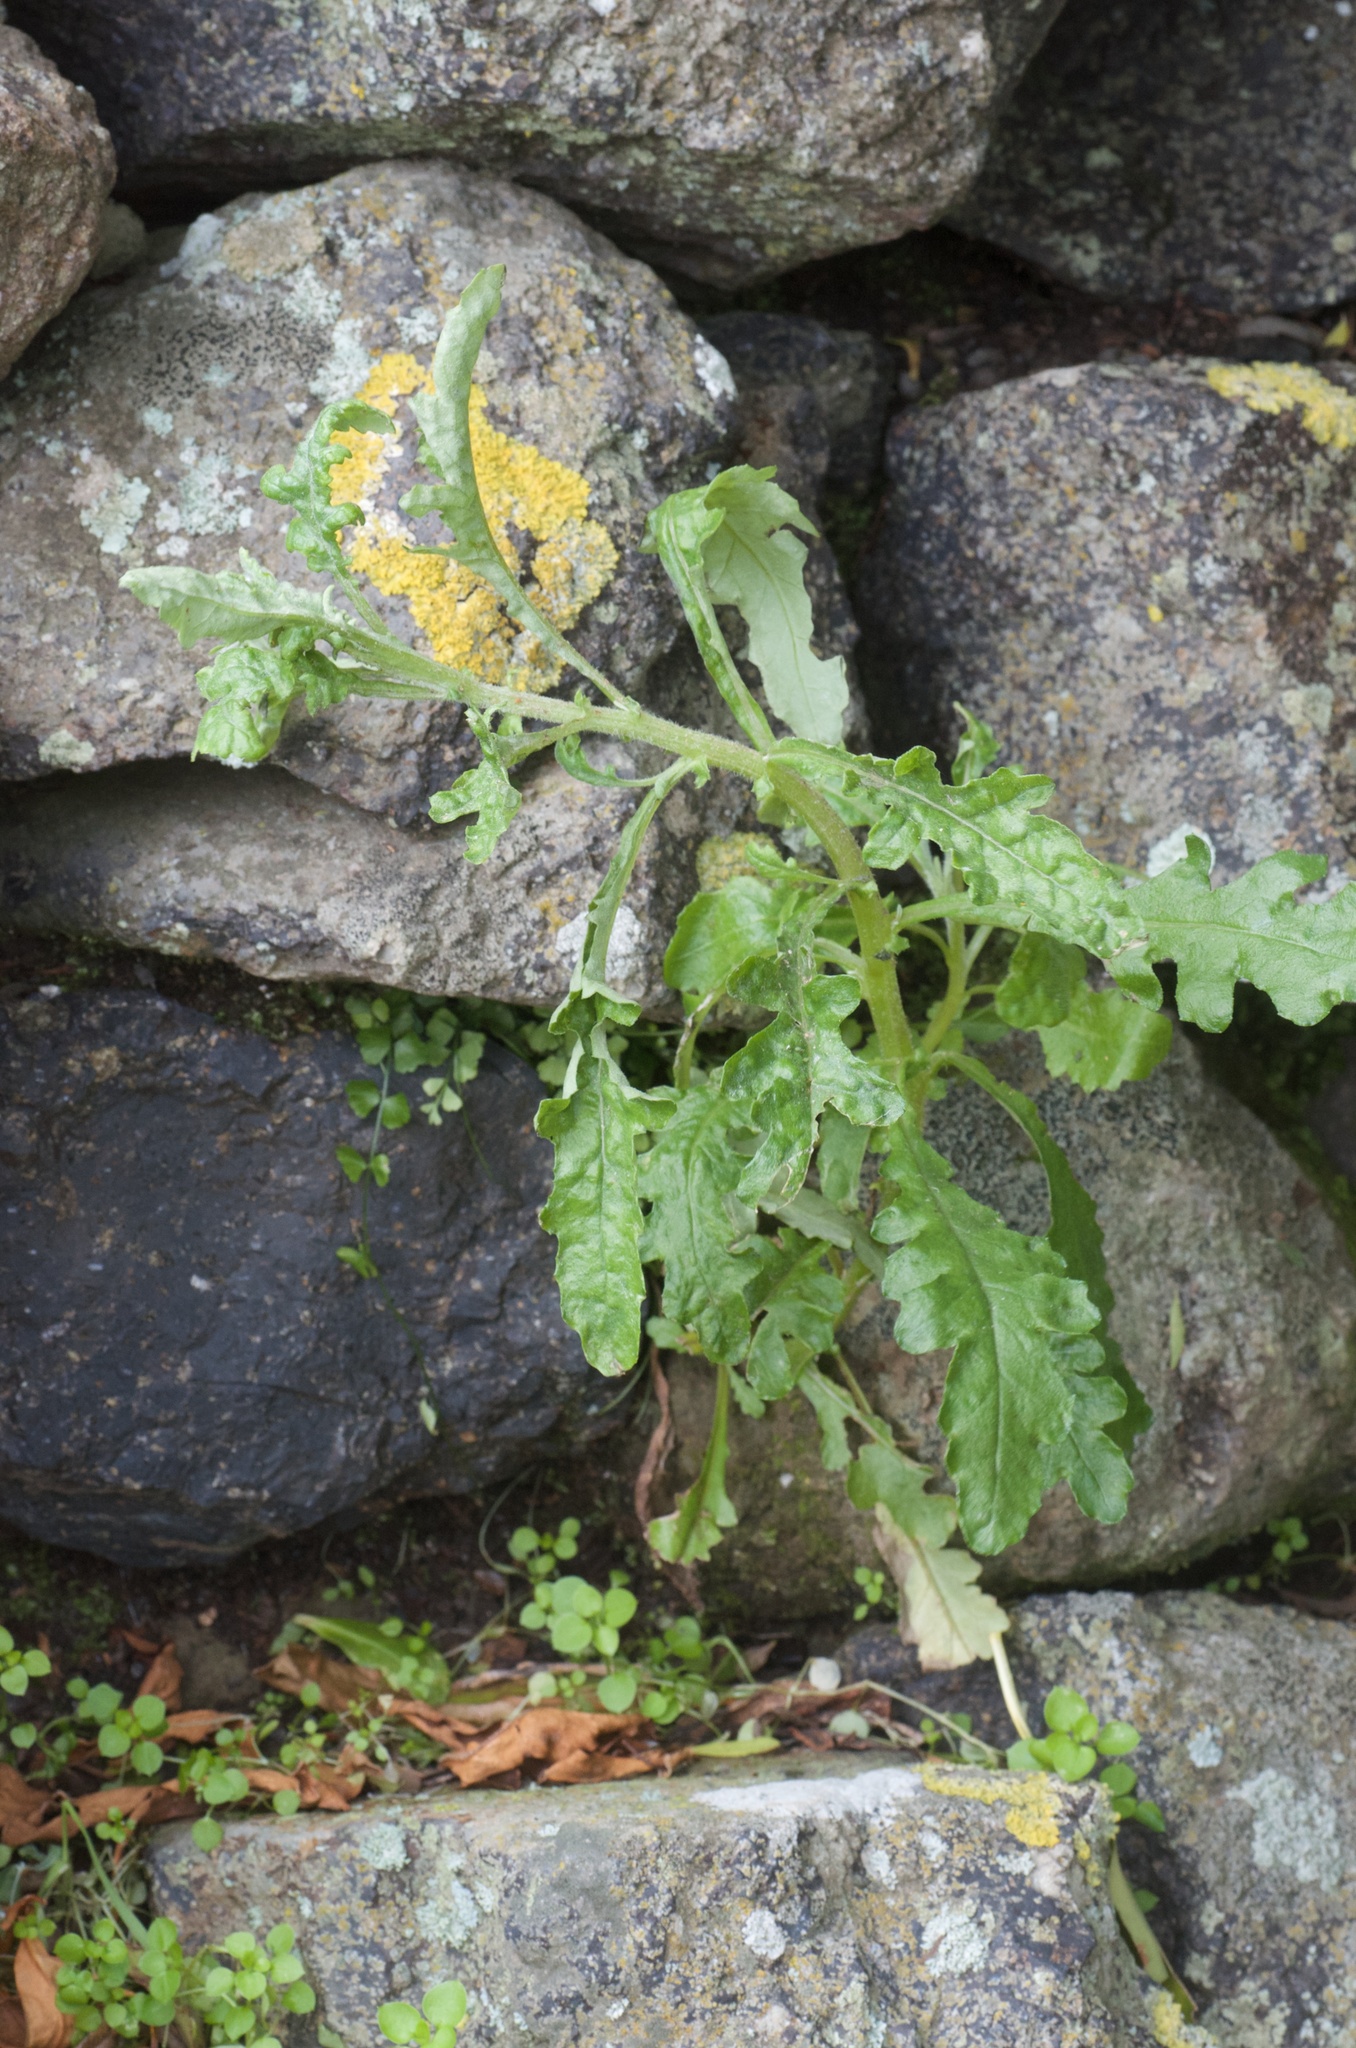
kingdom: Plantae
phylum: Tracheophyta
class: Magnoliopsida
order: Asterales
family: Asteraceae
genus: Senecio
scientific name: Senecio glomeratus
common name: Cutleaf burnweed
